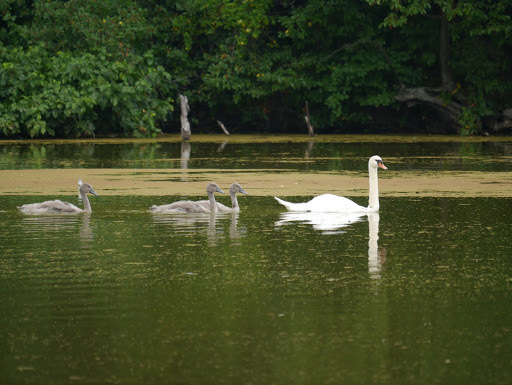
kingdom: Animalia
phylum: Chordata
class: Aves
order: Anseriformes
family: Anatidae
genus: Cygnus
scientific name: Cygnus olor
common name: Mute swan
